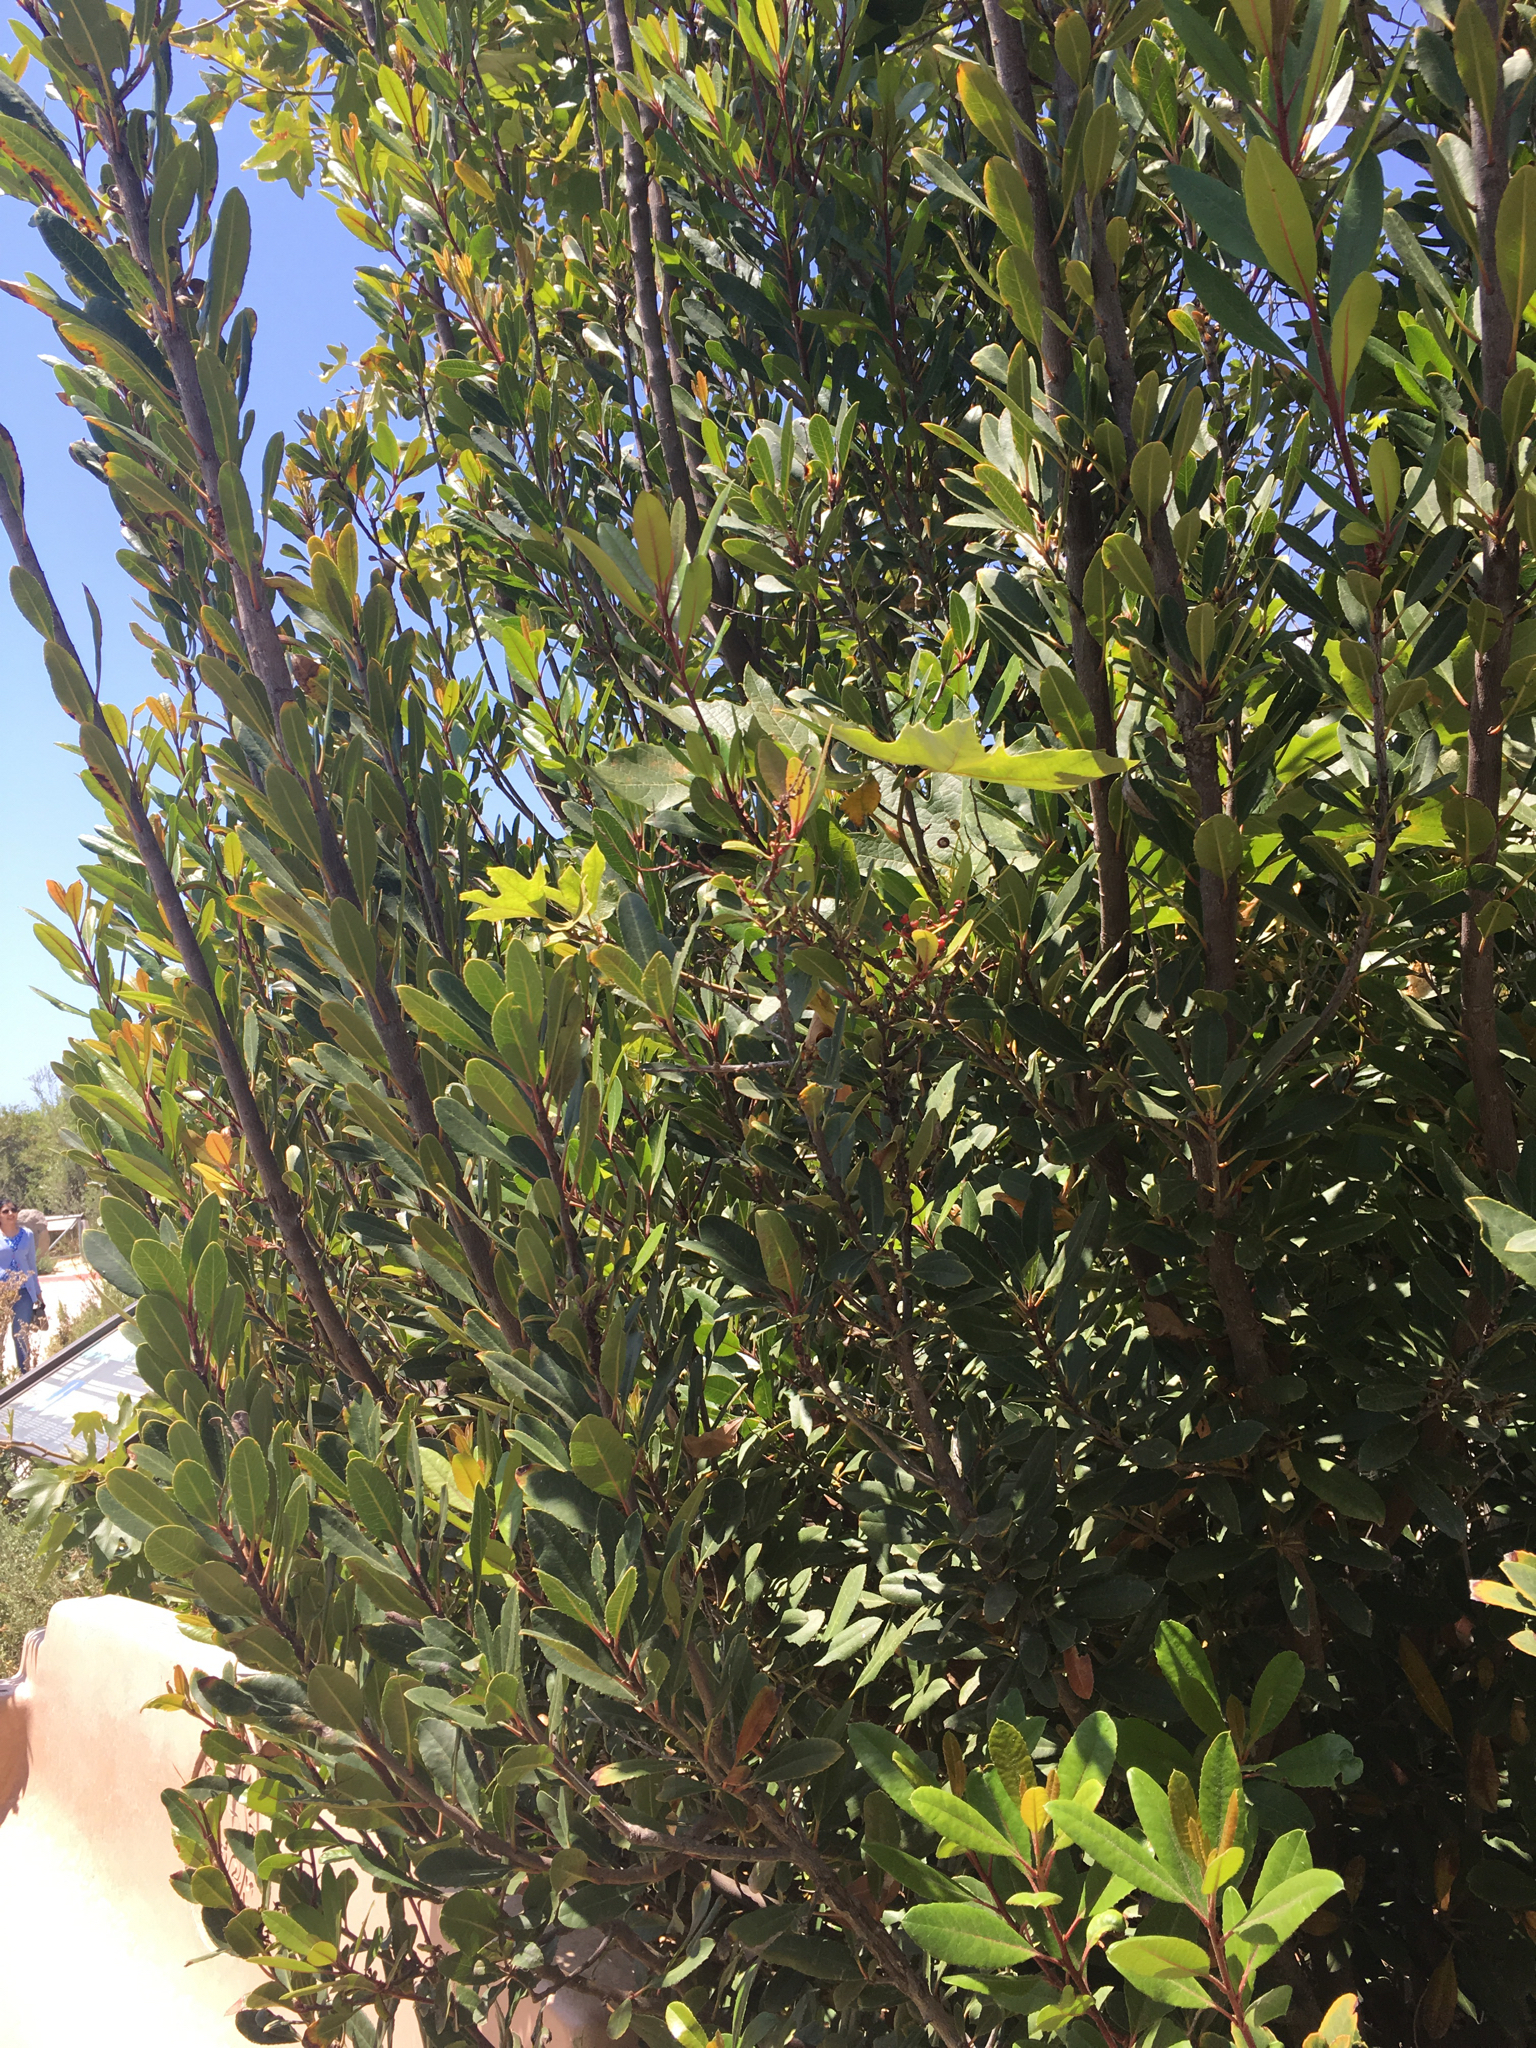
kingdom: Plantae
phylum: Tracheophyta
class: Magnoliopsida
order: Rosales
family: Rosaceae
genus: Heteromeles
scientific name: Heteromeles arbutifolia
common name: California-holly
